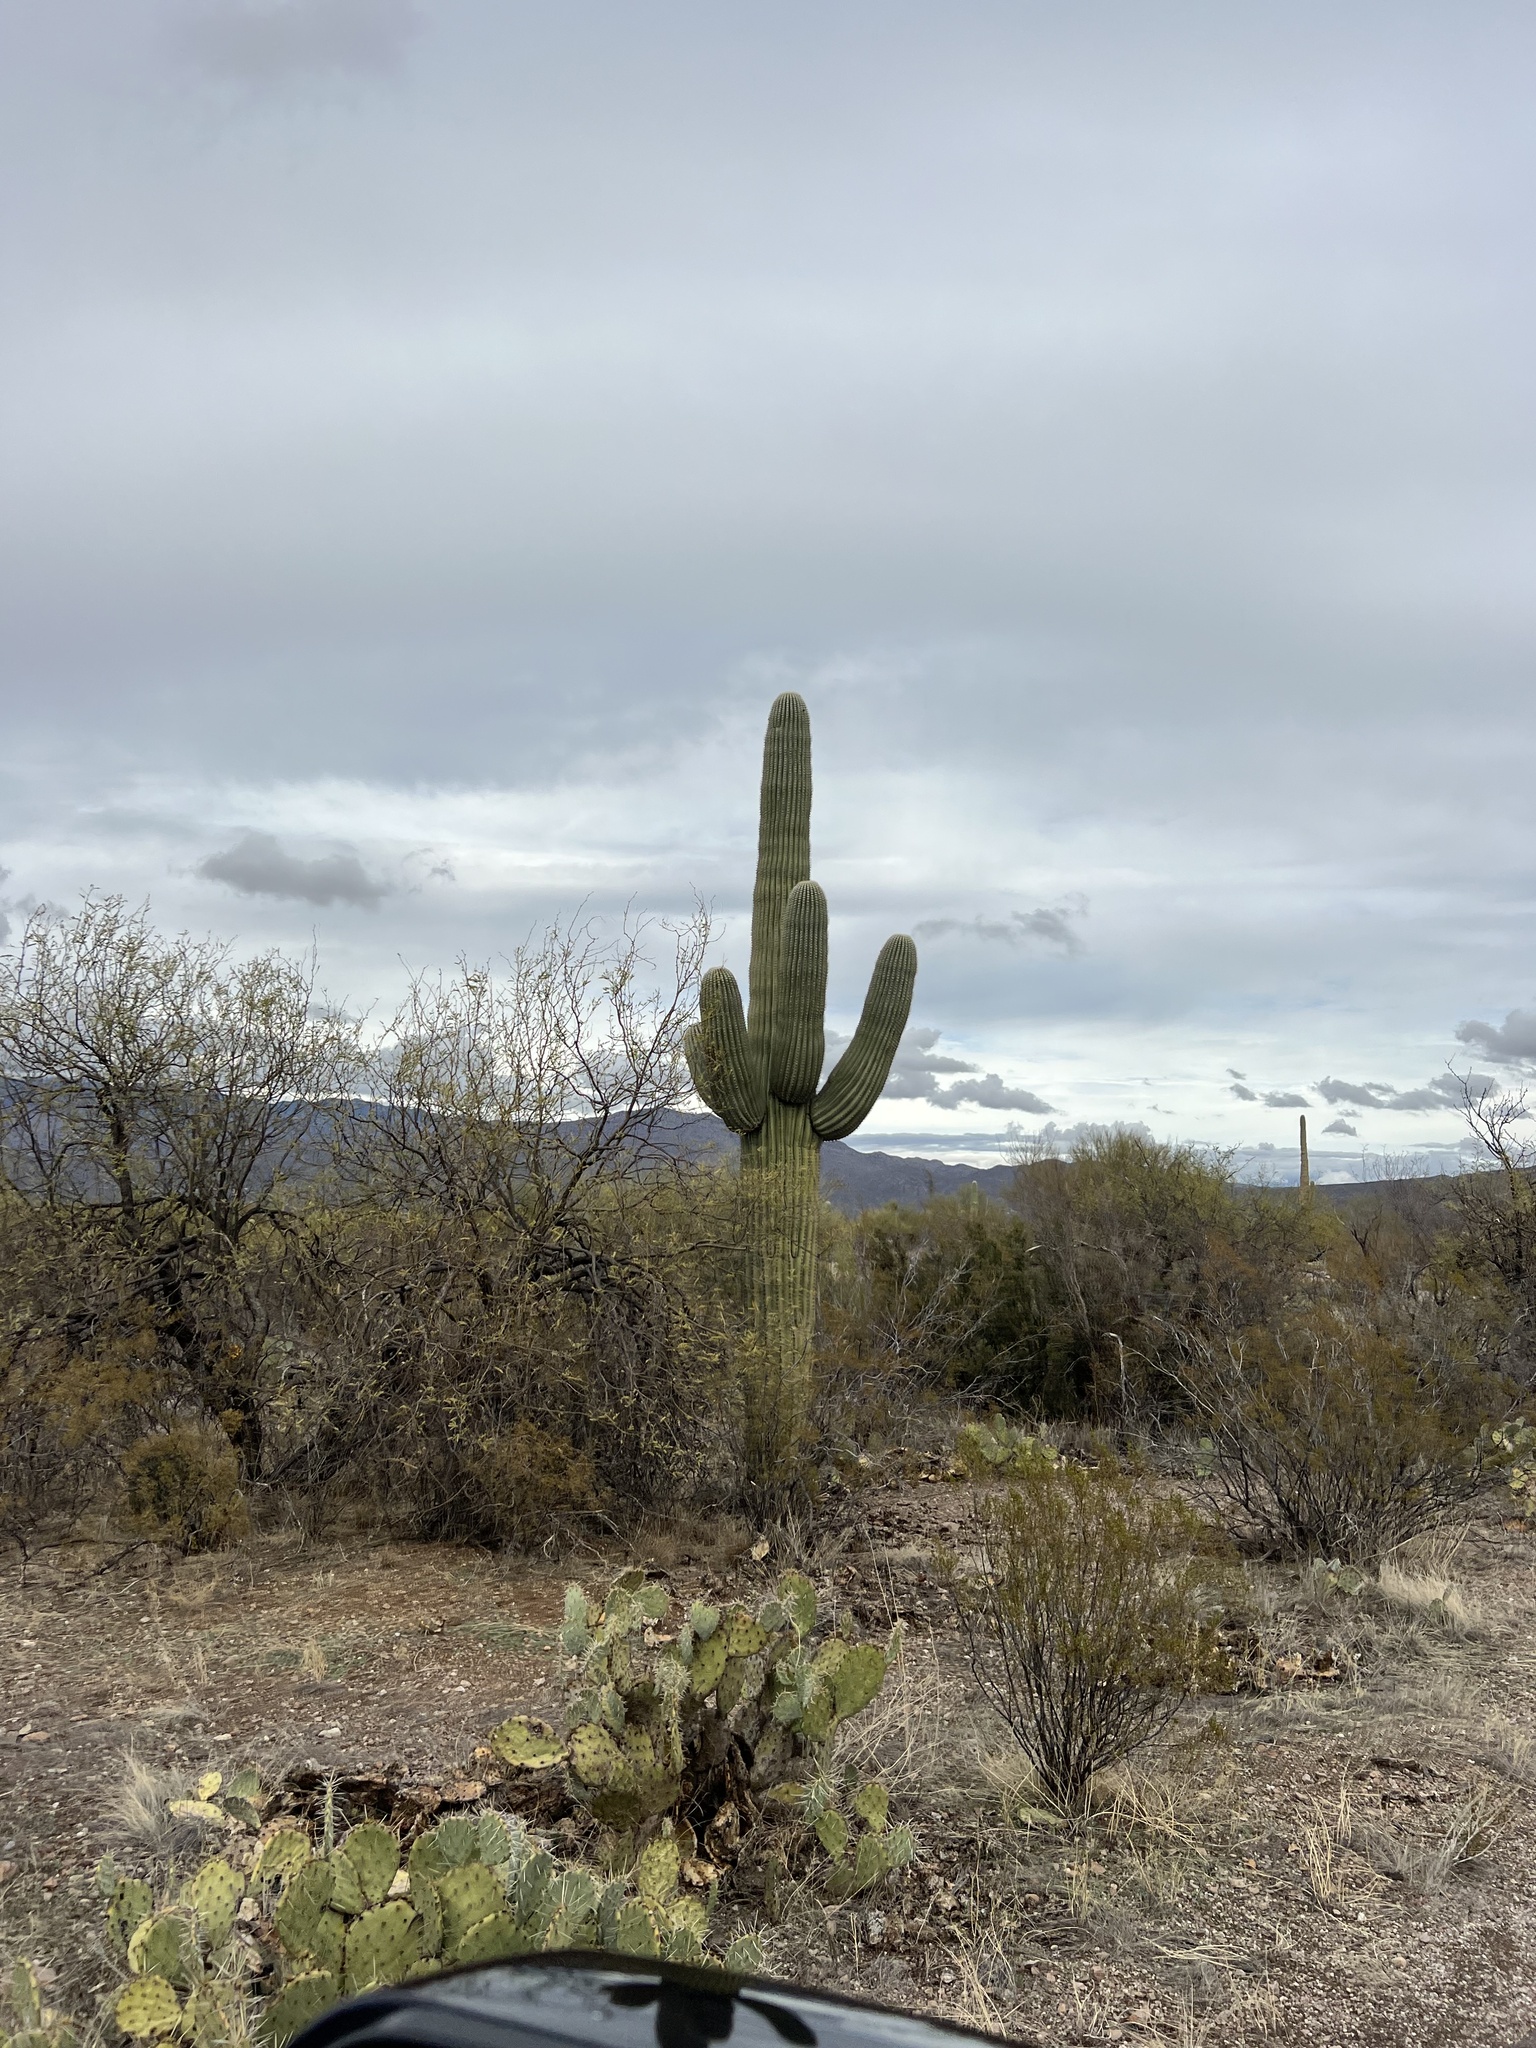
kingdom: Plantae
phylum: Tracheophyta
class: Magnoliopsida
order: Caryophyllales
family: Cactaceae
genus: Carnegiea
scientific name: Carnegiea gigantea
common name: Saguaro
